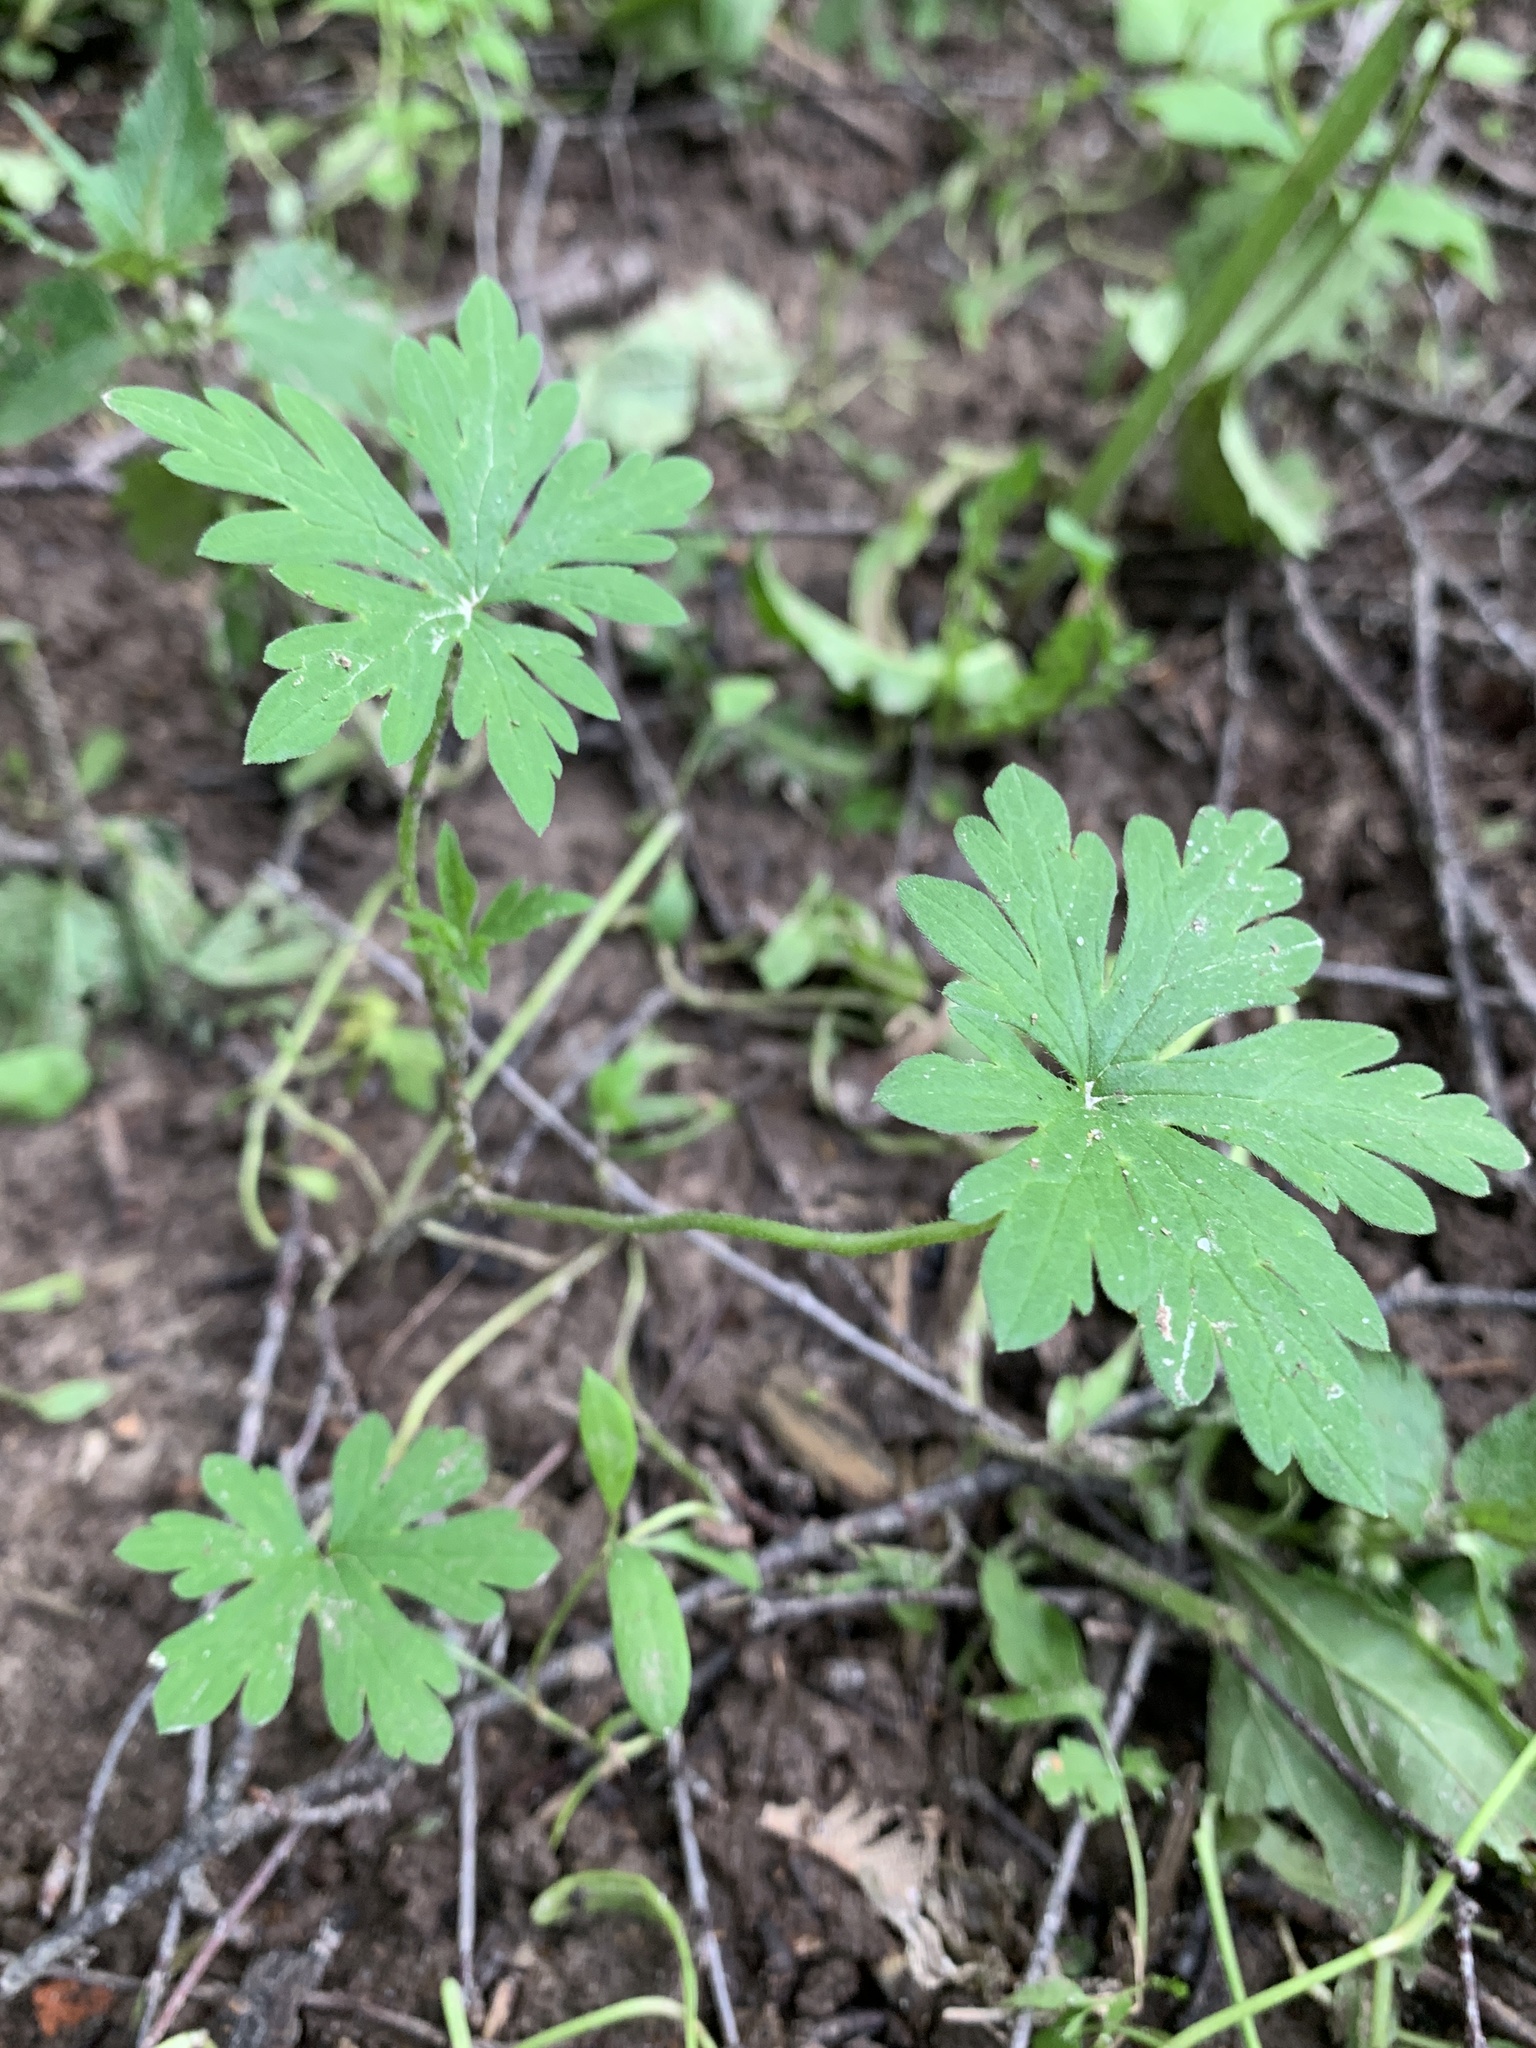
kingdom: Plantae
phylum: Tracheophyta
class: Magnoliopsida
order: Geraniales
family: Geraniaceae
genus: Geranium
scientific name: Geranium sibiricum
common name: Siberian crane's-bill
